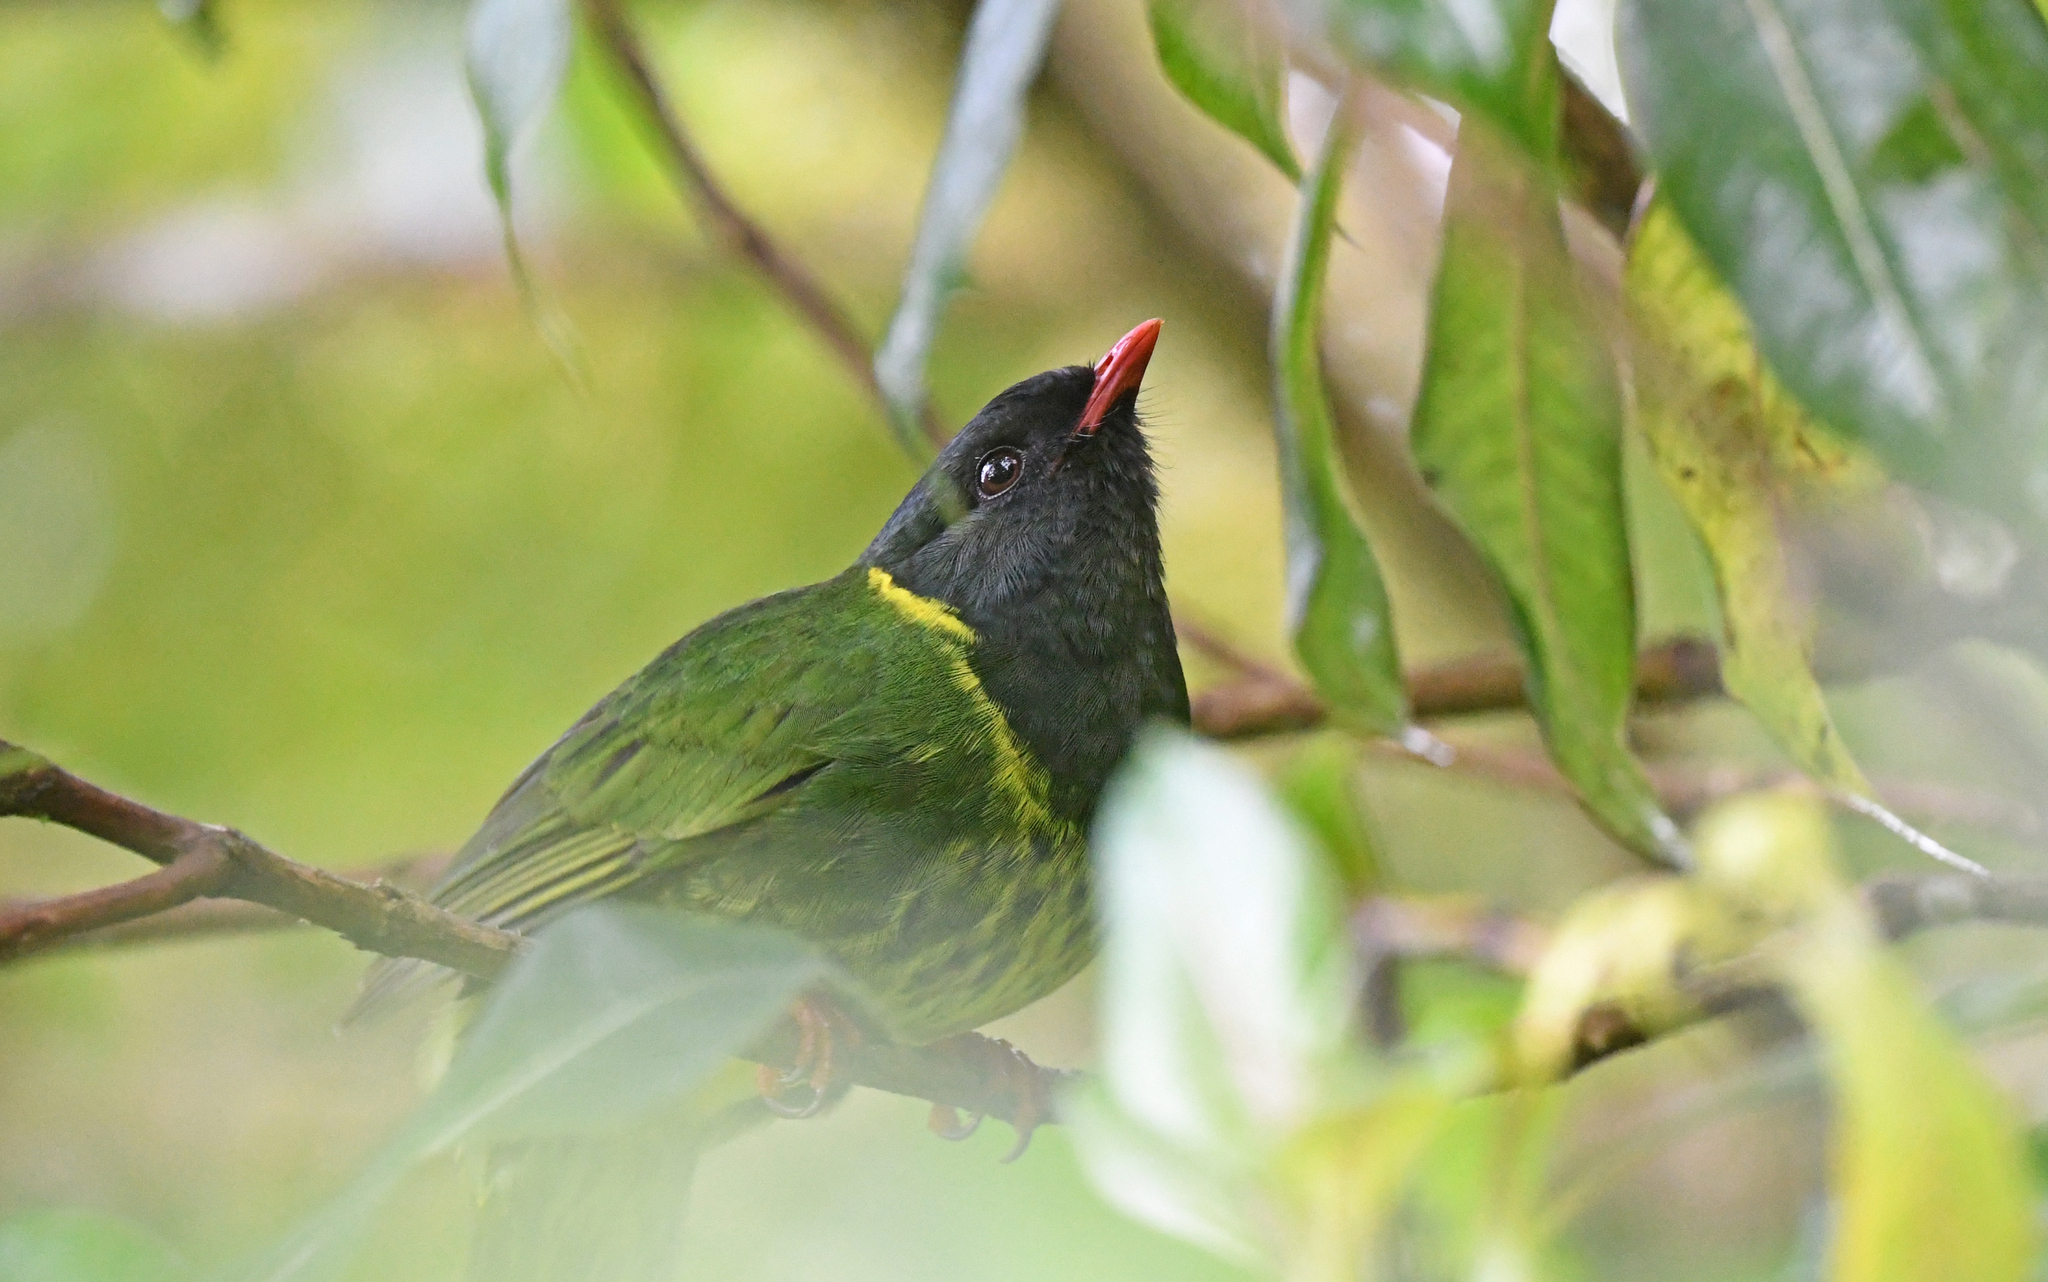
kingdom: Animalia
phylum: Chordata
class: Aves
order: Passeriformes
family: Cotingidae
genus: Pipreola
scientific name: Pipreola riefferii
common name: Green-and-black fruiteater
